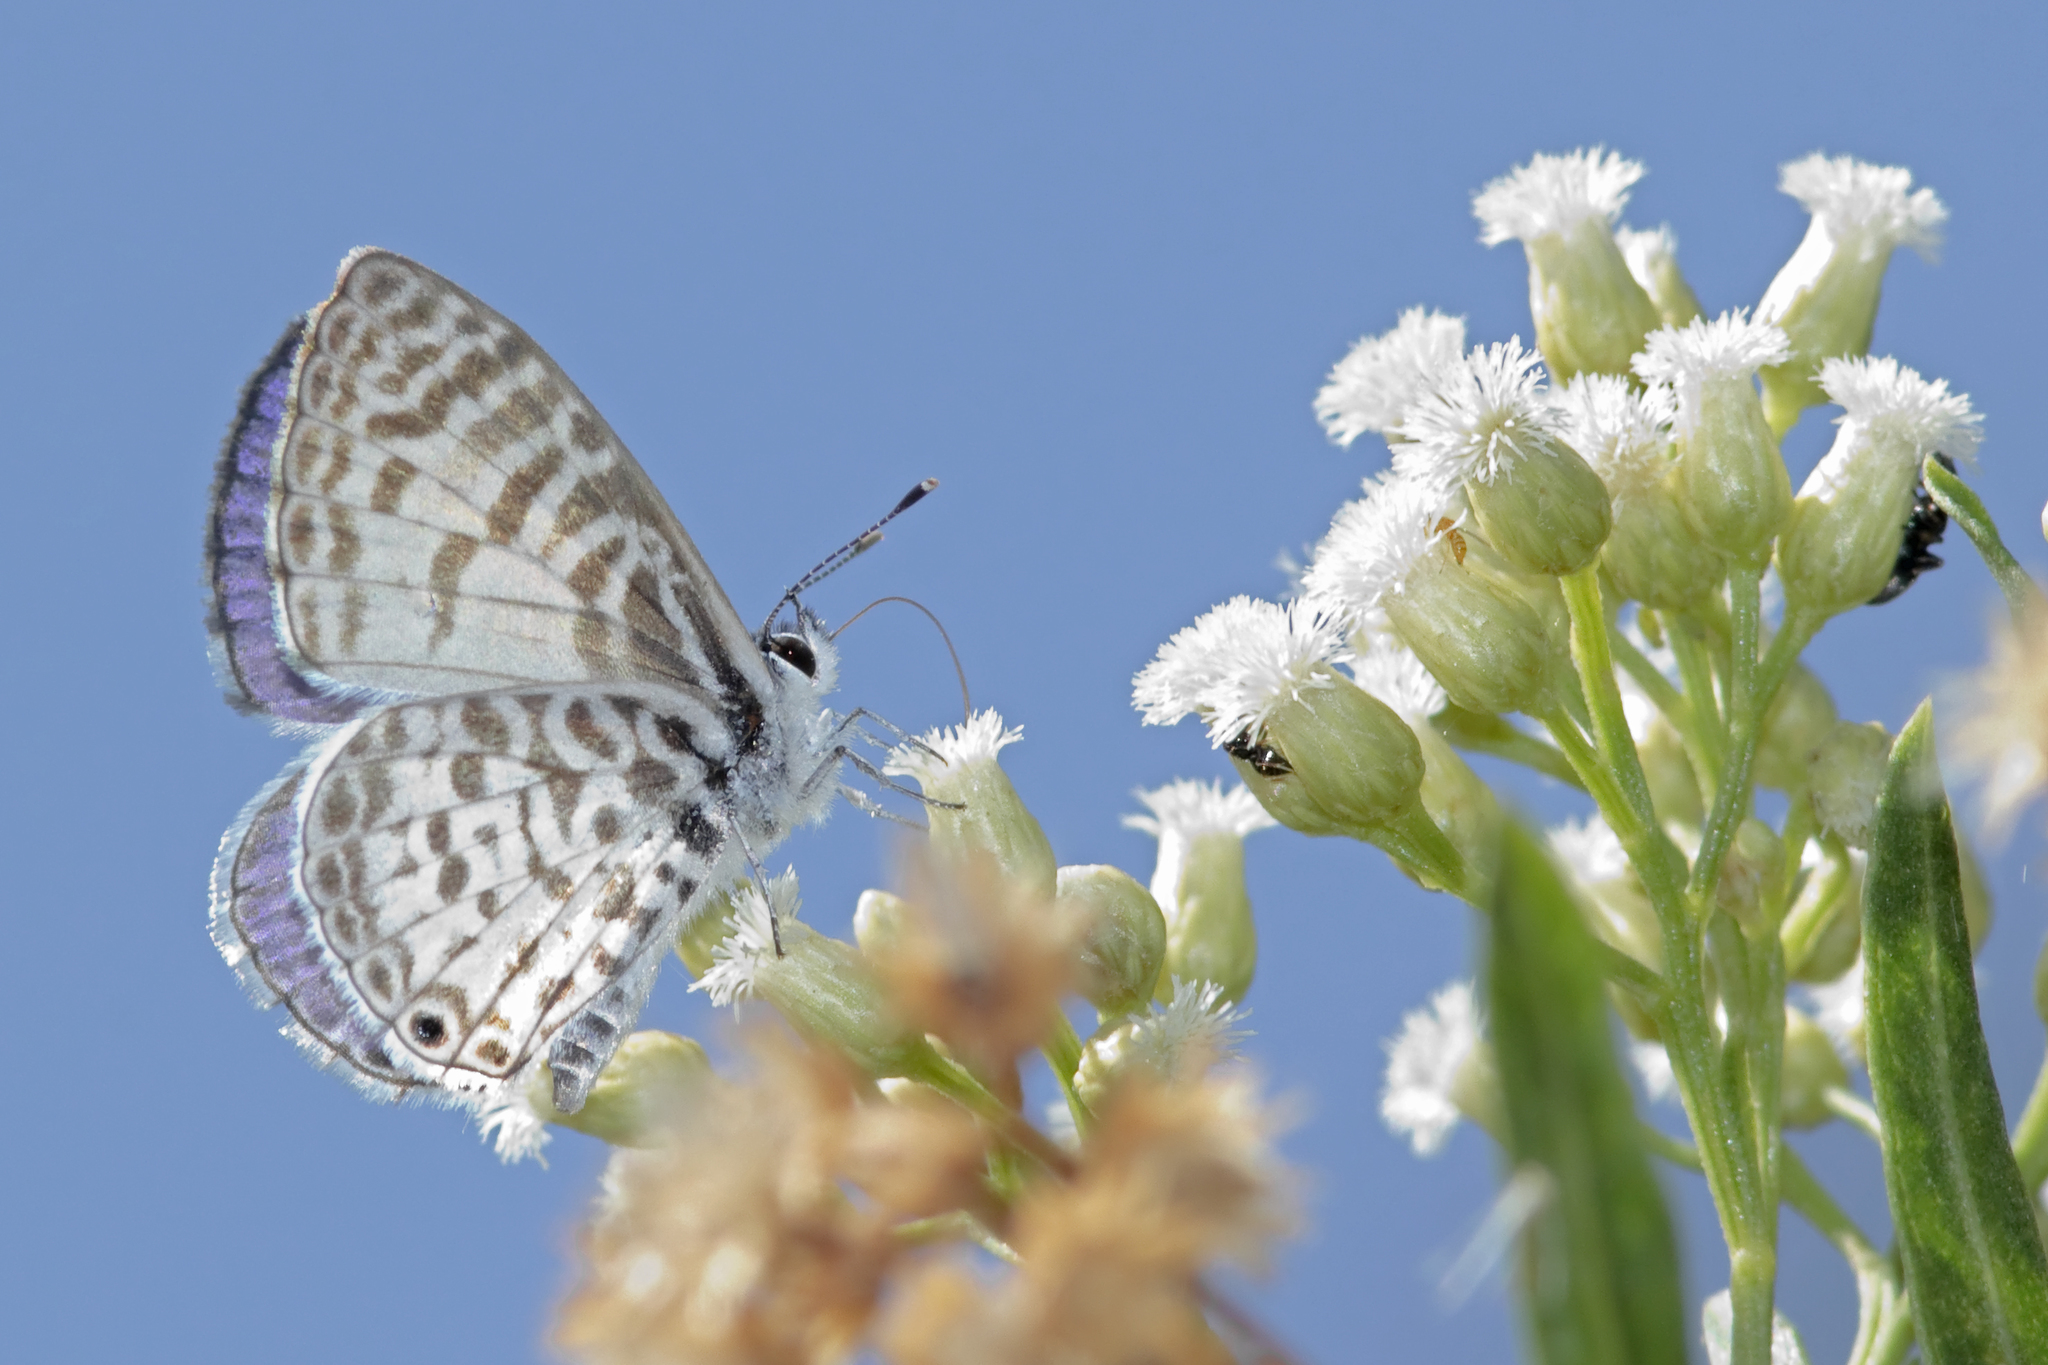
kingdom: Animalia
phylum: Arthropoda
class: Insecta
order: Lepidoptera
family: Lycaenidae
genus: Leptotes
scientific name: Leptotes cassius
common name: Cassius blue
